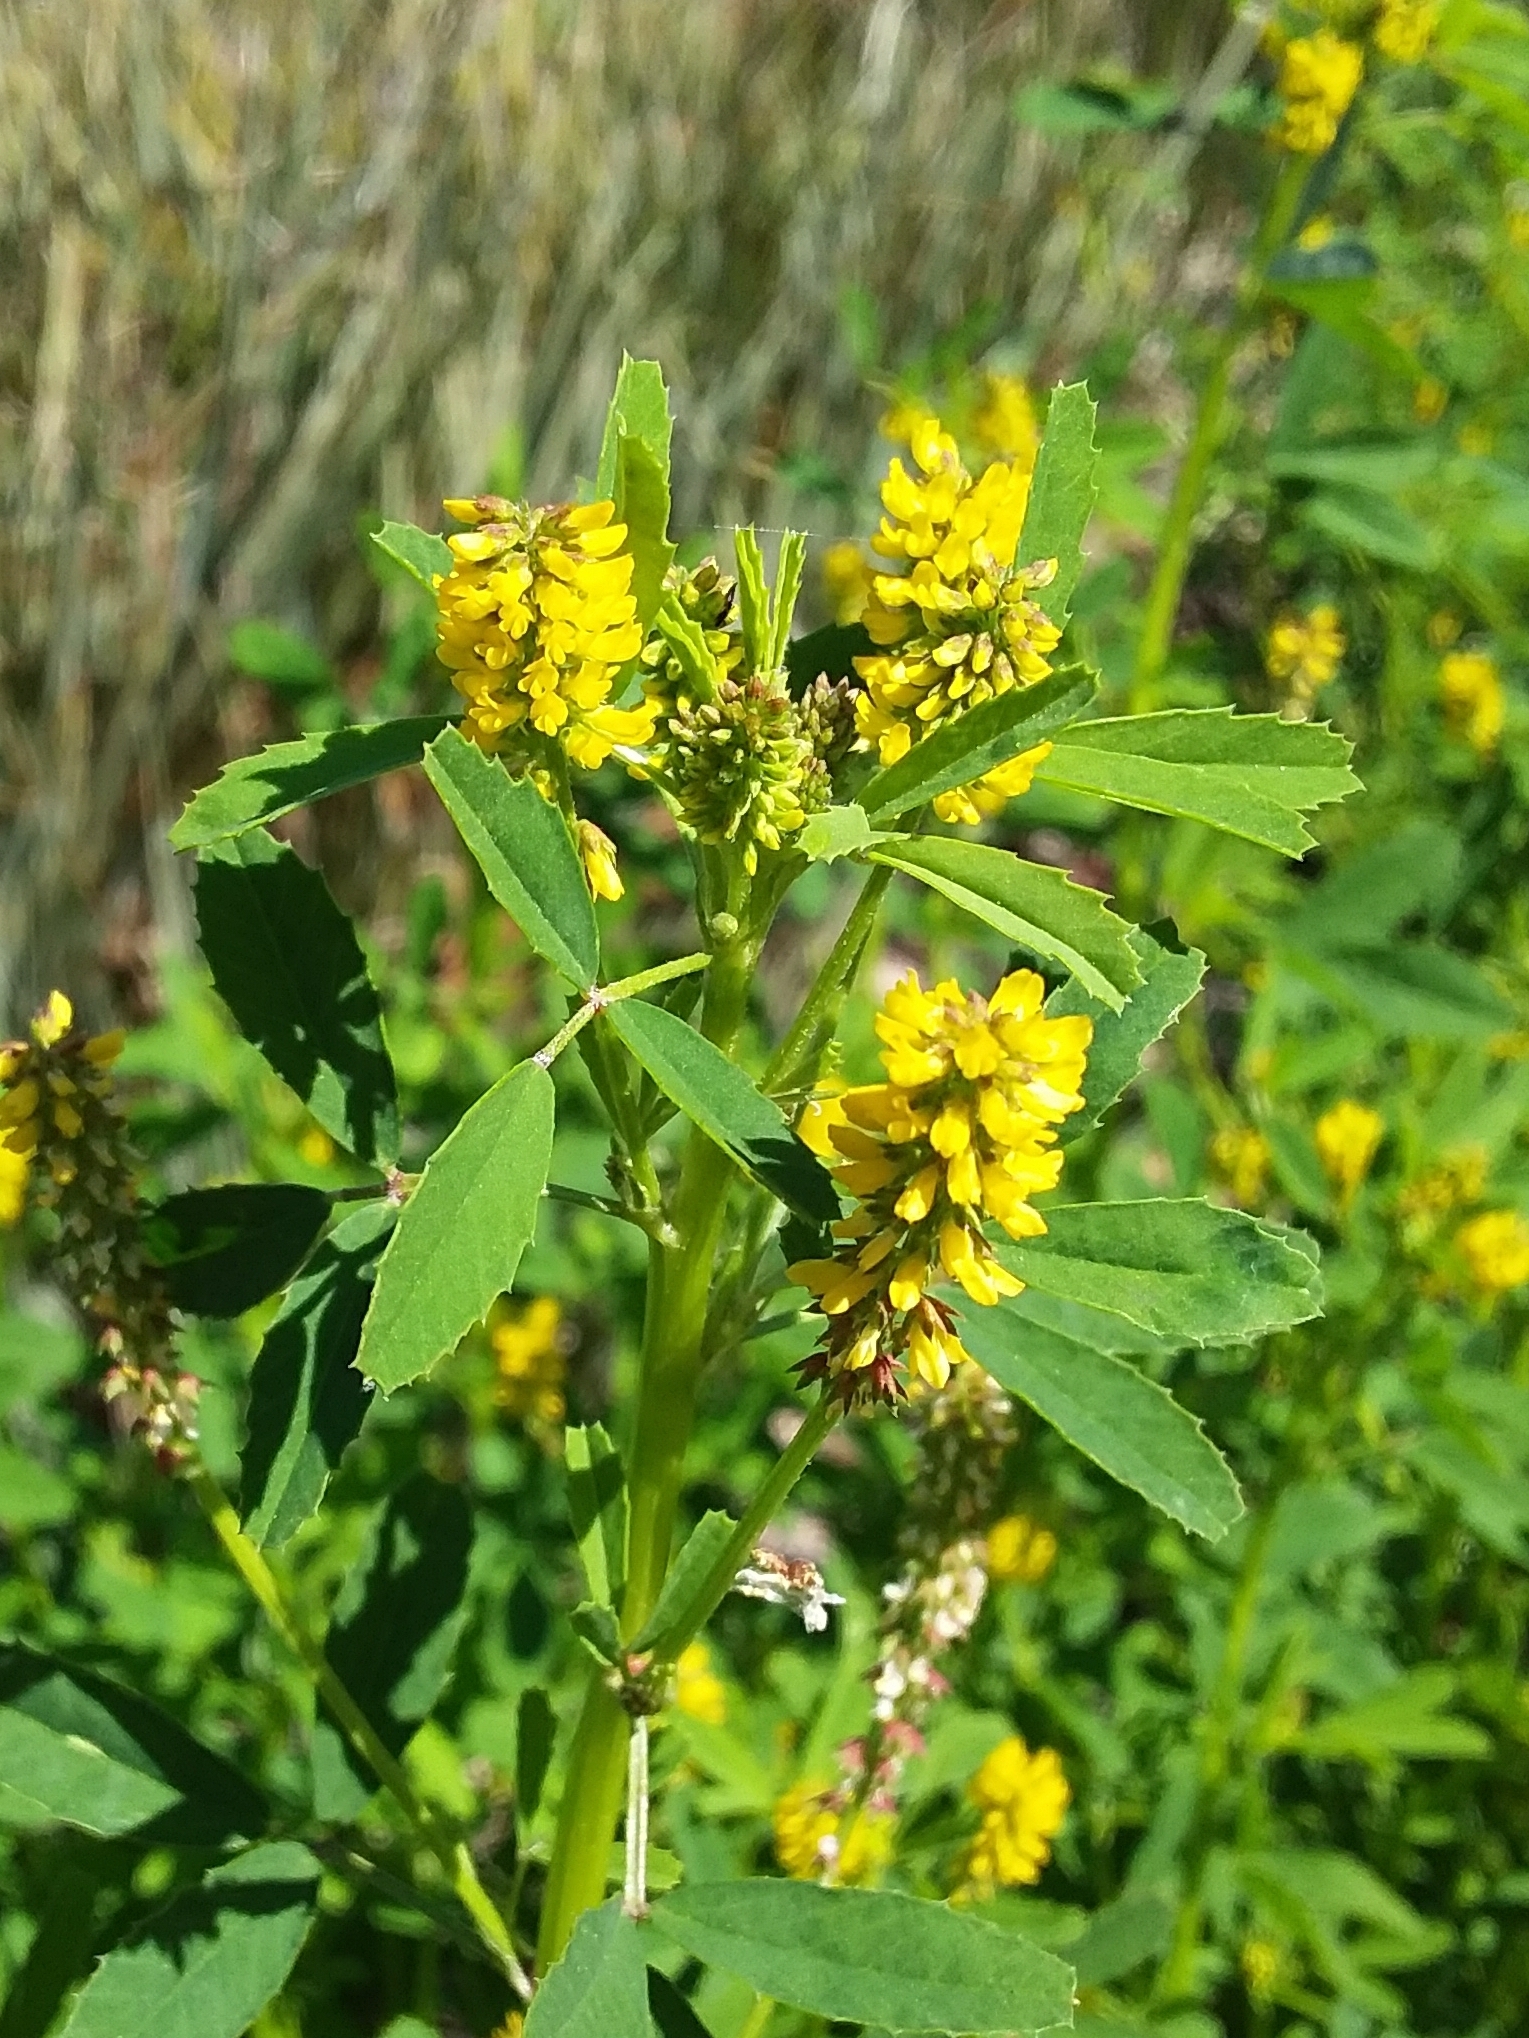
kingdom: Plantae
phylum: Tracheophyta
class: Magnoliopsida
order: Fabales
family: Fabaceae
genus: Melilotus
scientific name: Melilotus indicus
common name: Small melilot
